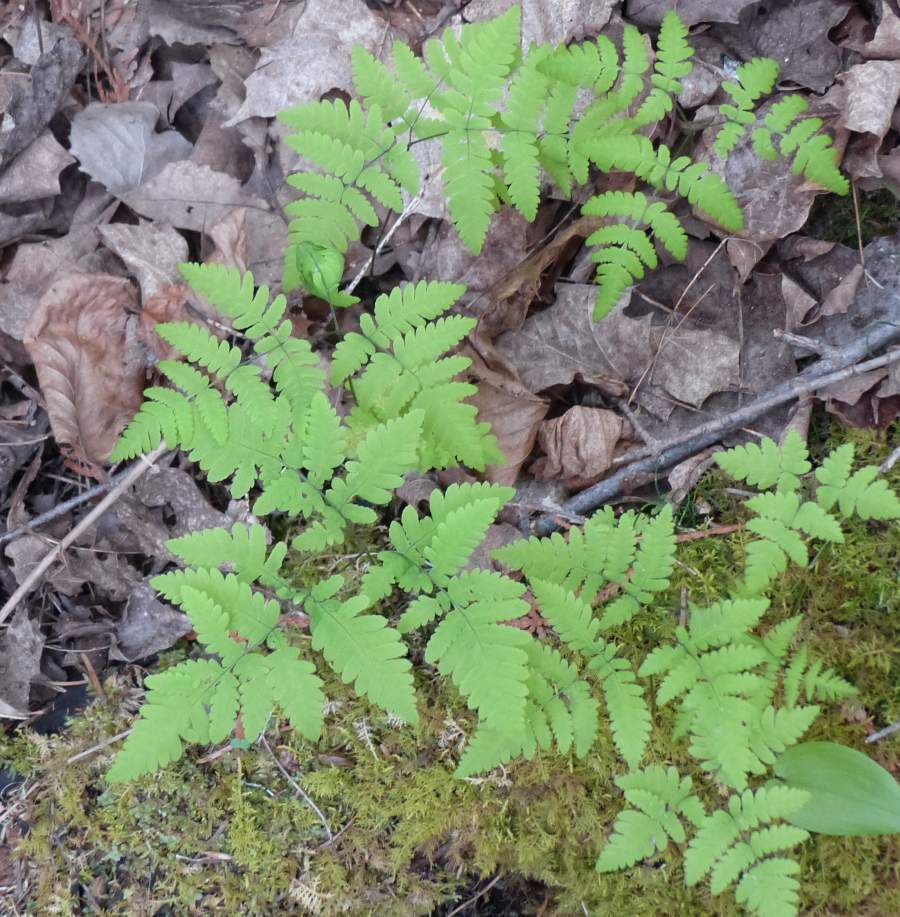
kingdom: Plantae
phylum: Tracheophyta
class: Polypodiopsida
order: Polypodiales
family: Cystopteridaceae
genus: Gymnocarpium
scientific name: Gymnocarpium dryopteris
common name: Oak fern
